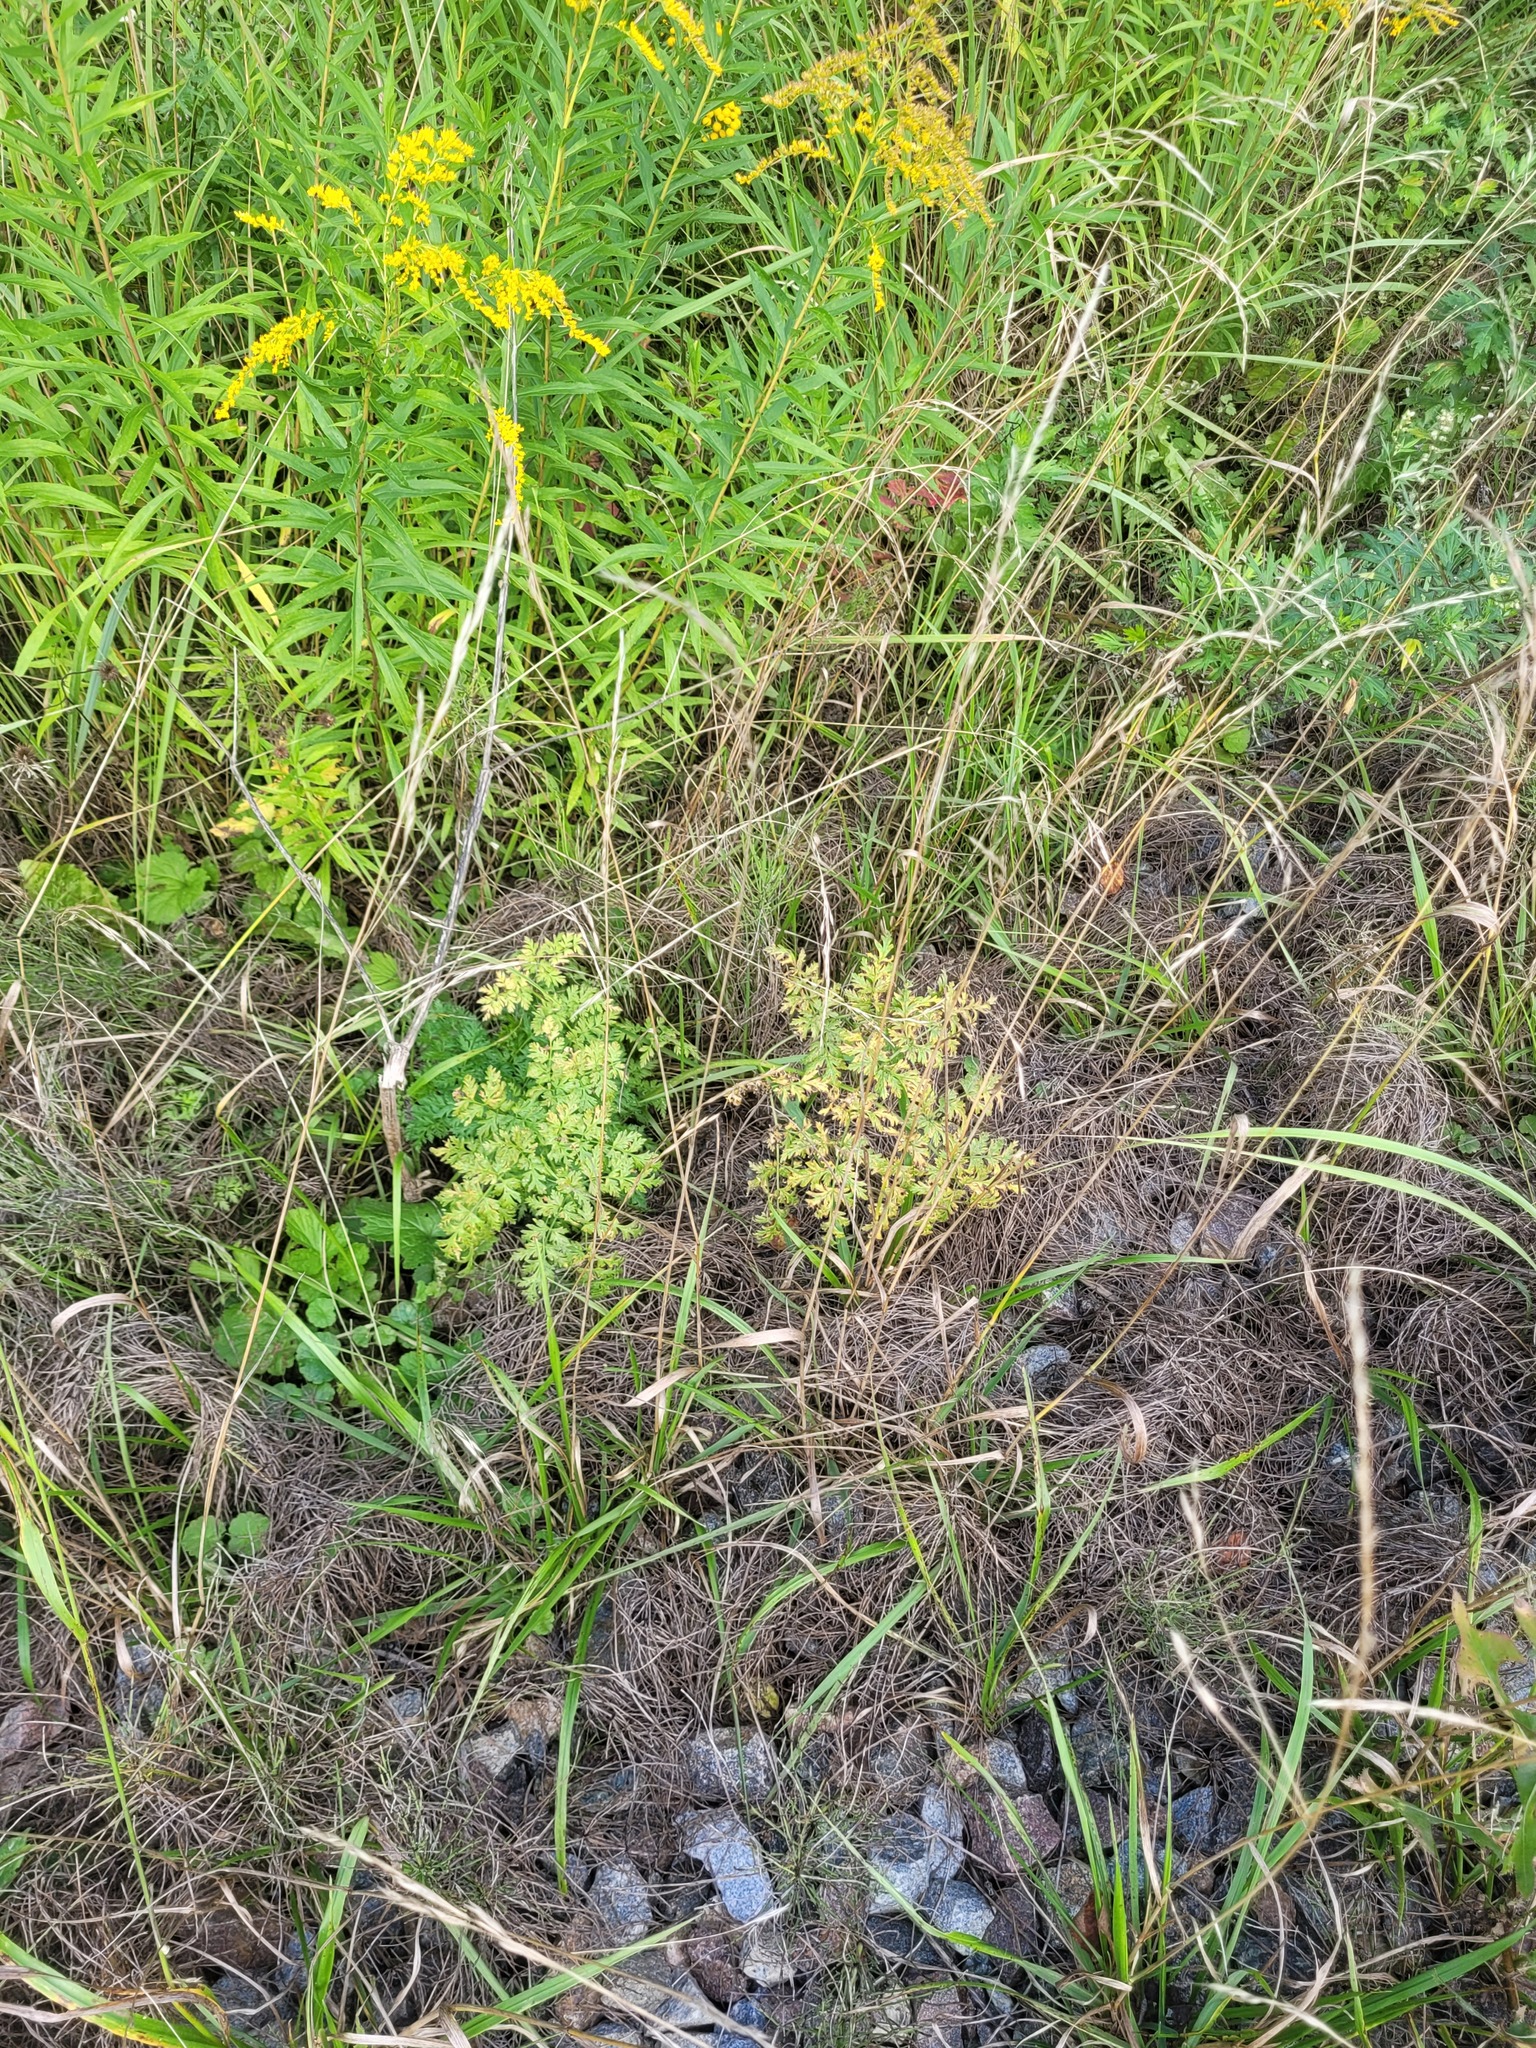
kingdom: Plantae
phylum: Tracheophyta
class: Magnoliopsida
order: Apiales
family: Apiaceae
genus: Anthriscus
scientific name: Anthriscus sylvestris
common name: Cow parsley
